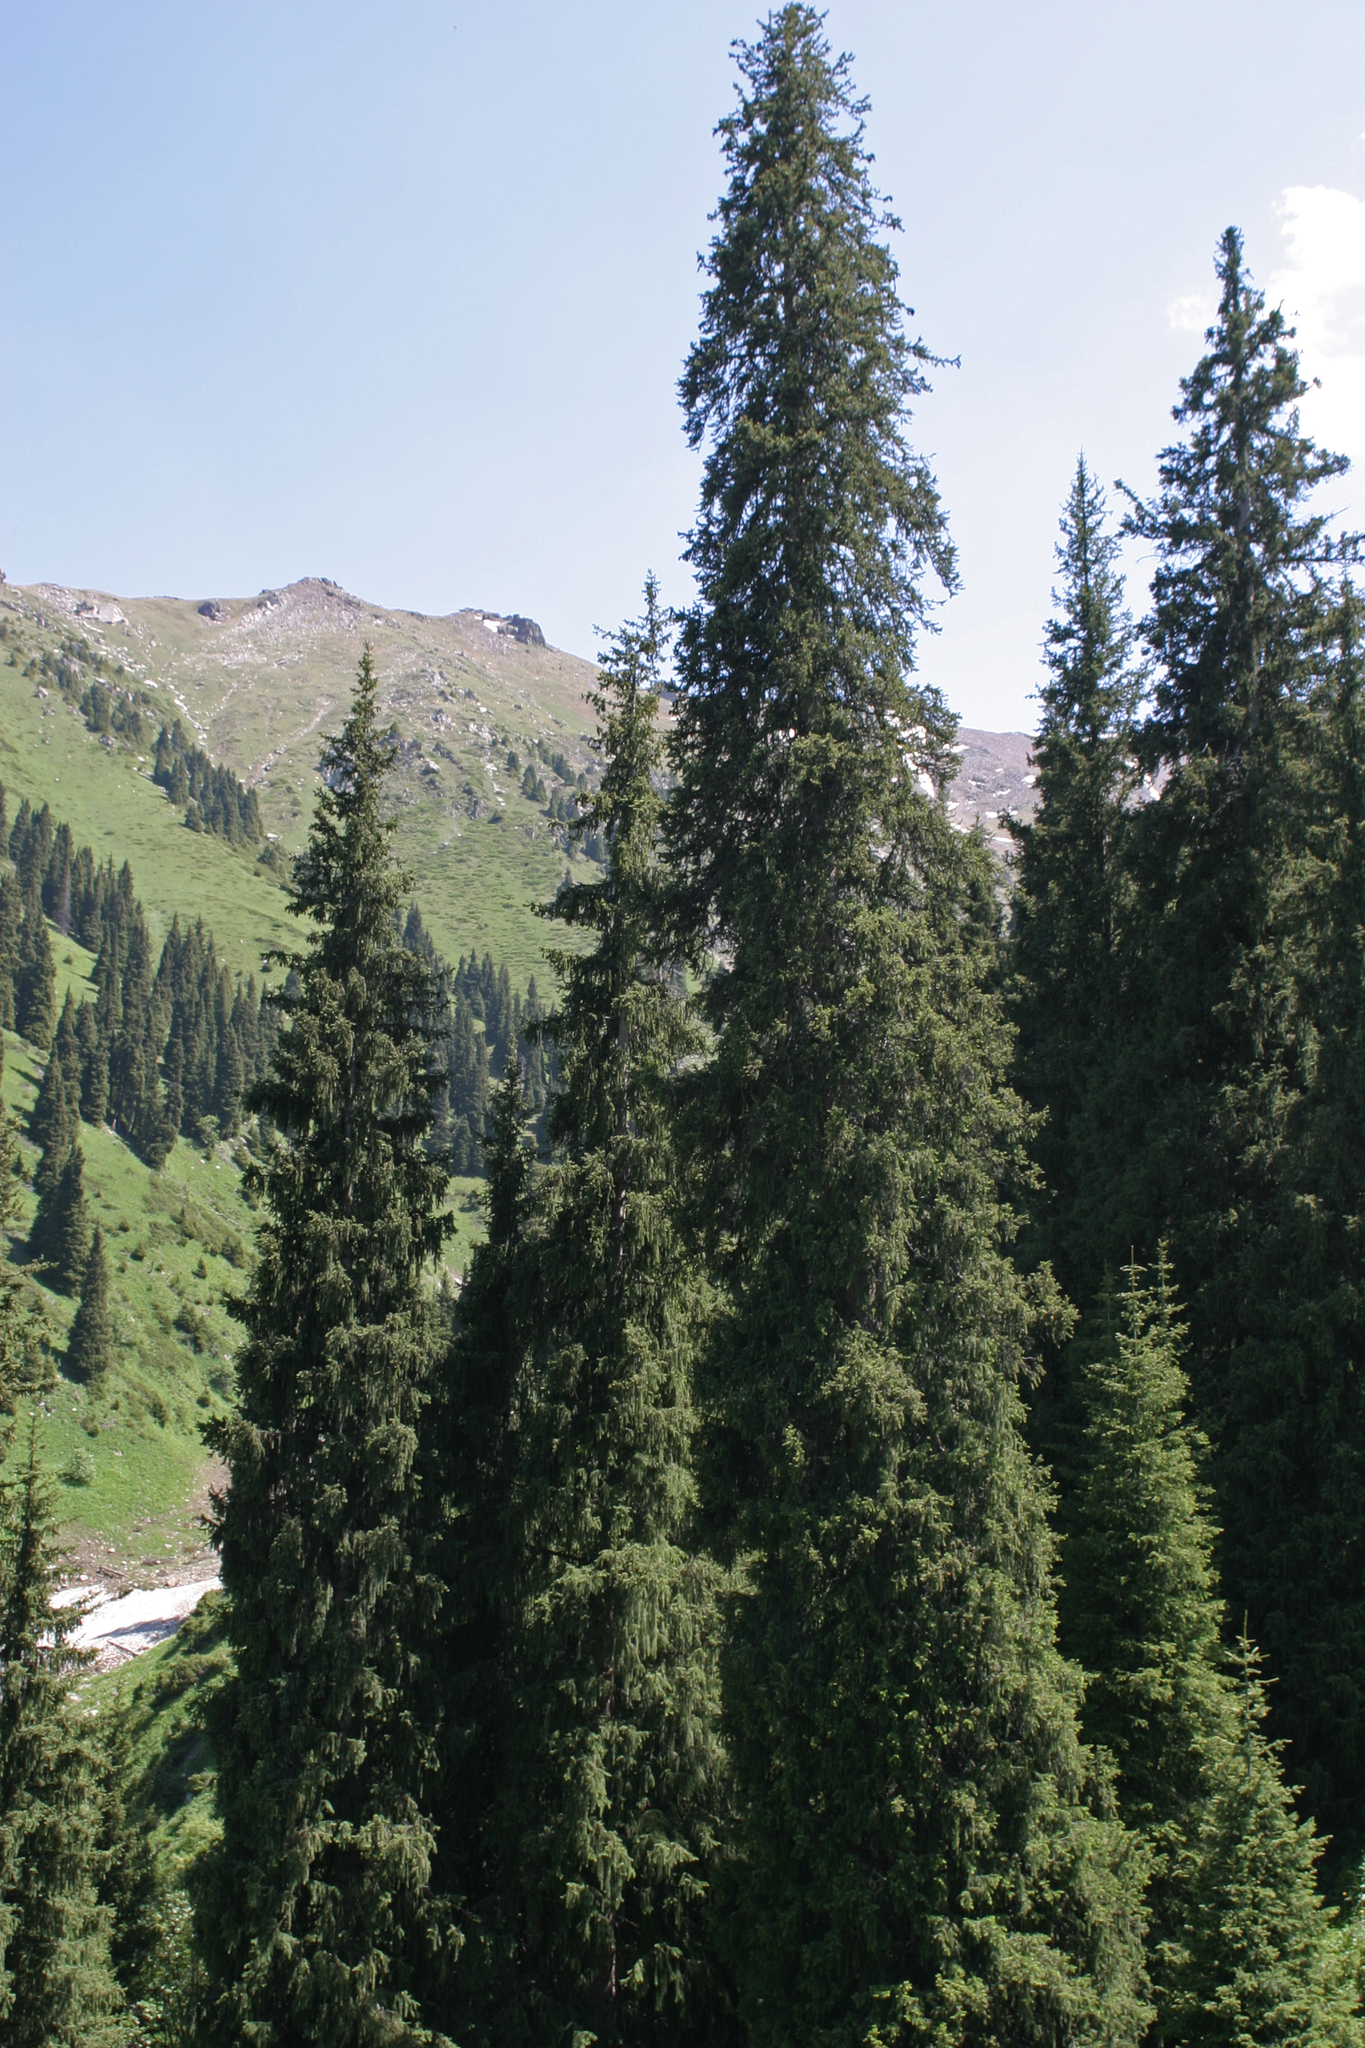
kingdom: Plantae
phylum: Tracheophyta
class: Pinopsida
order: Pinales
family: Pinaceae
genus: Picea
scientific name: Picea schrenkiana
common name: Asian spruce
